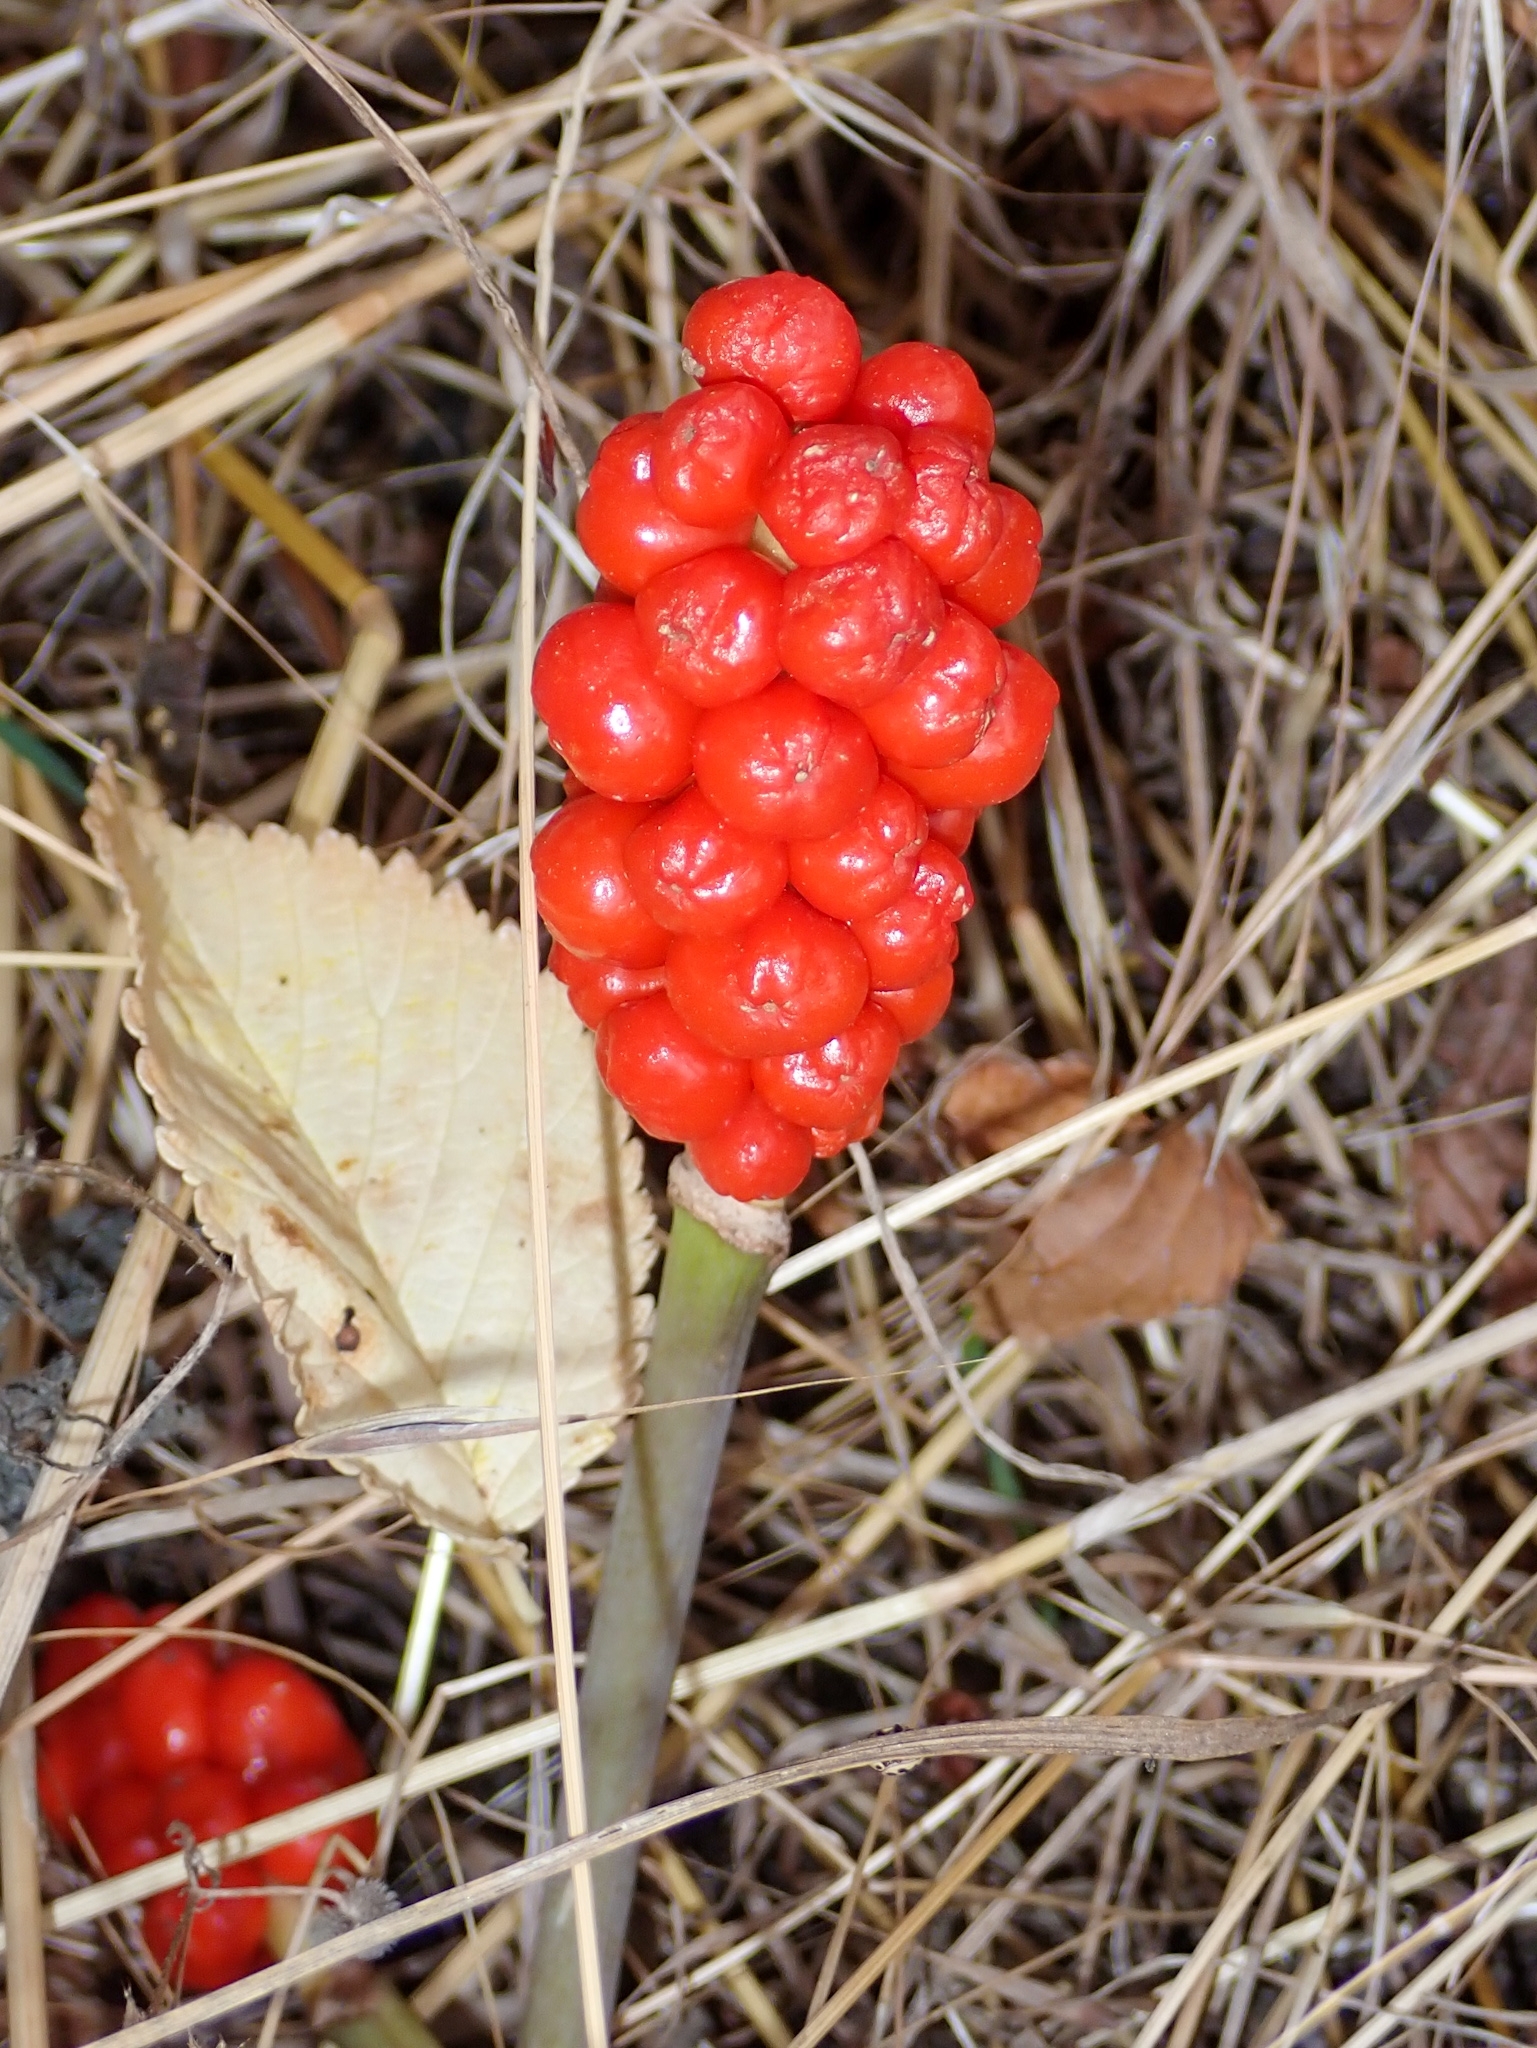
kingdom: Plantae
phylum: Tracheophyta
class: Liliopsida
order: Alismatales
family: Araceae
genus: Arum
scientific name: Arum maculatum
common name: Lords-and-ladies
